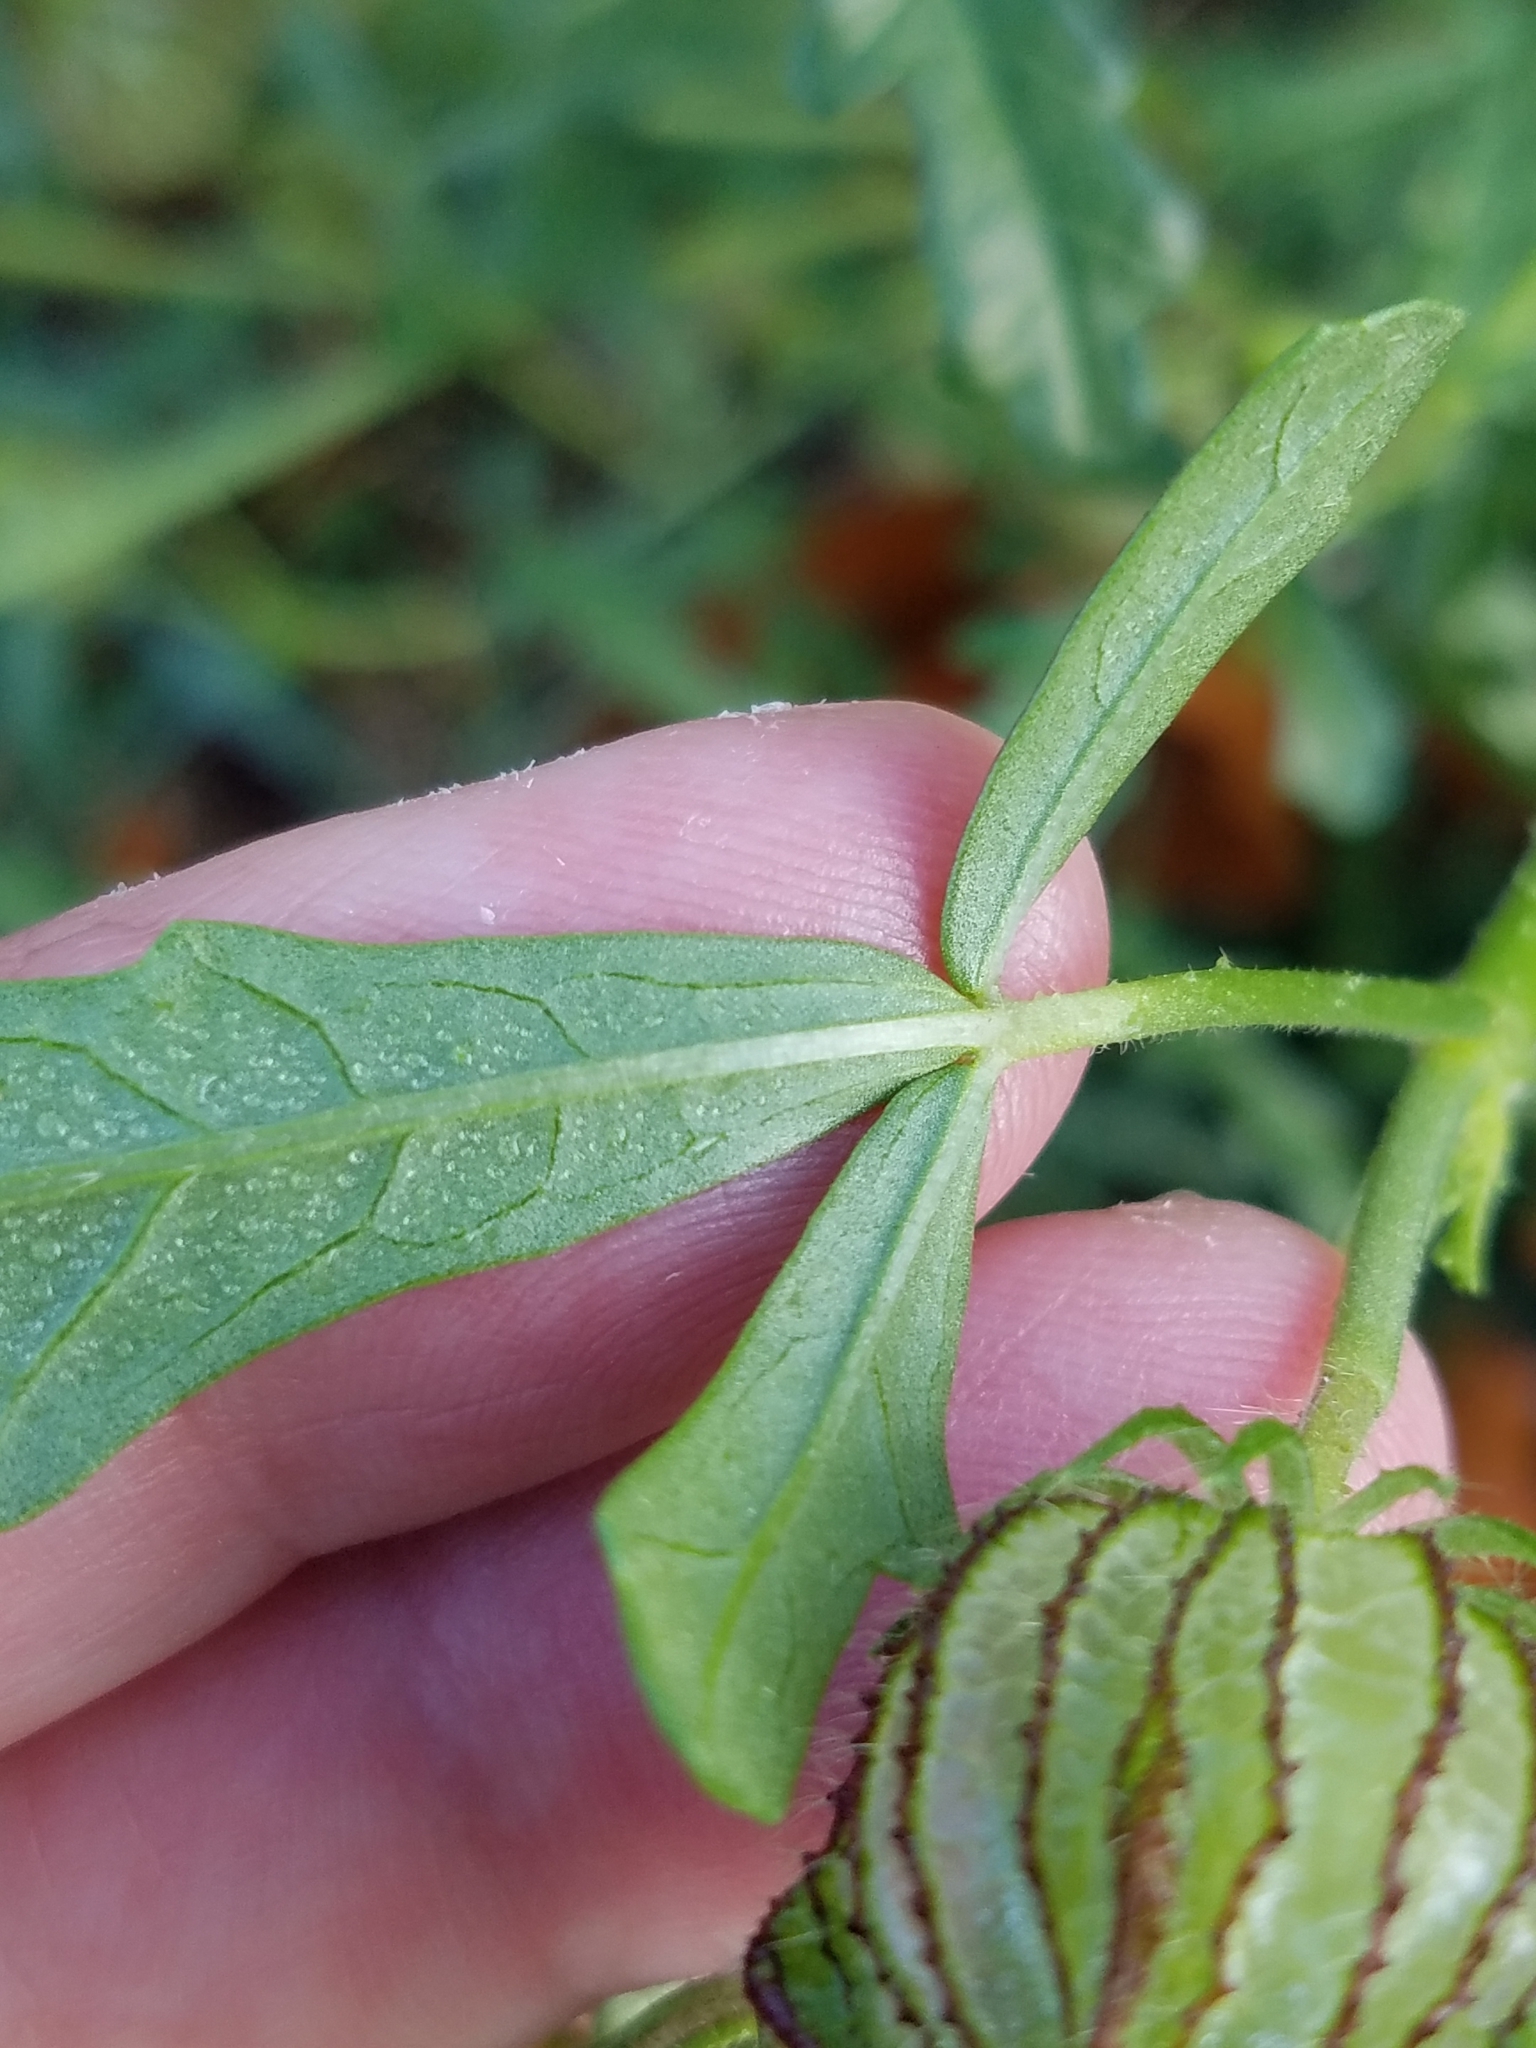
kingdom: Plantae
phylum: Tracheophyta
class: Magnoliopsida
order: Malvales
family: Malvaceae
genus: Hibiscus
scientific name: Hibiscus trionum
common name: Bladder ketmia
